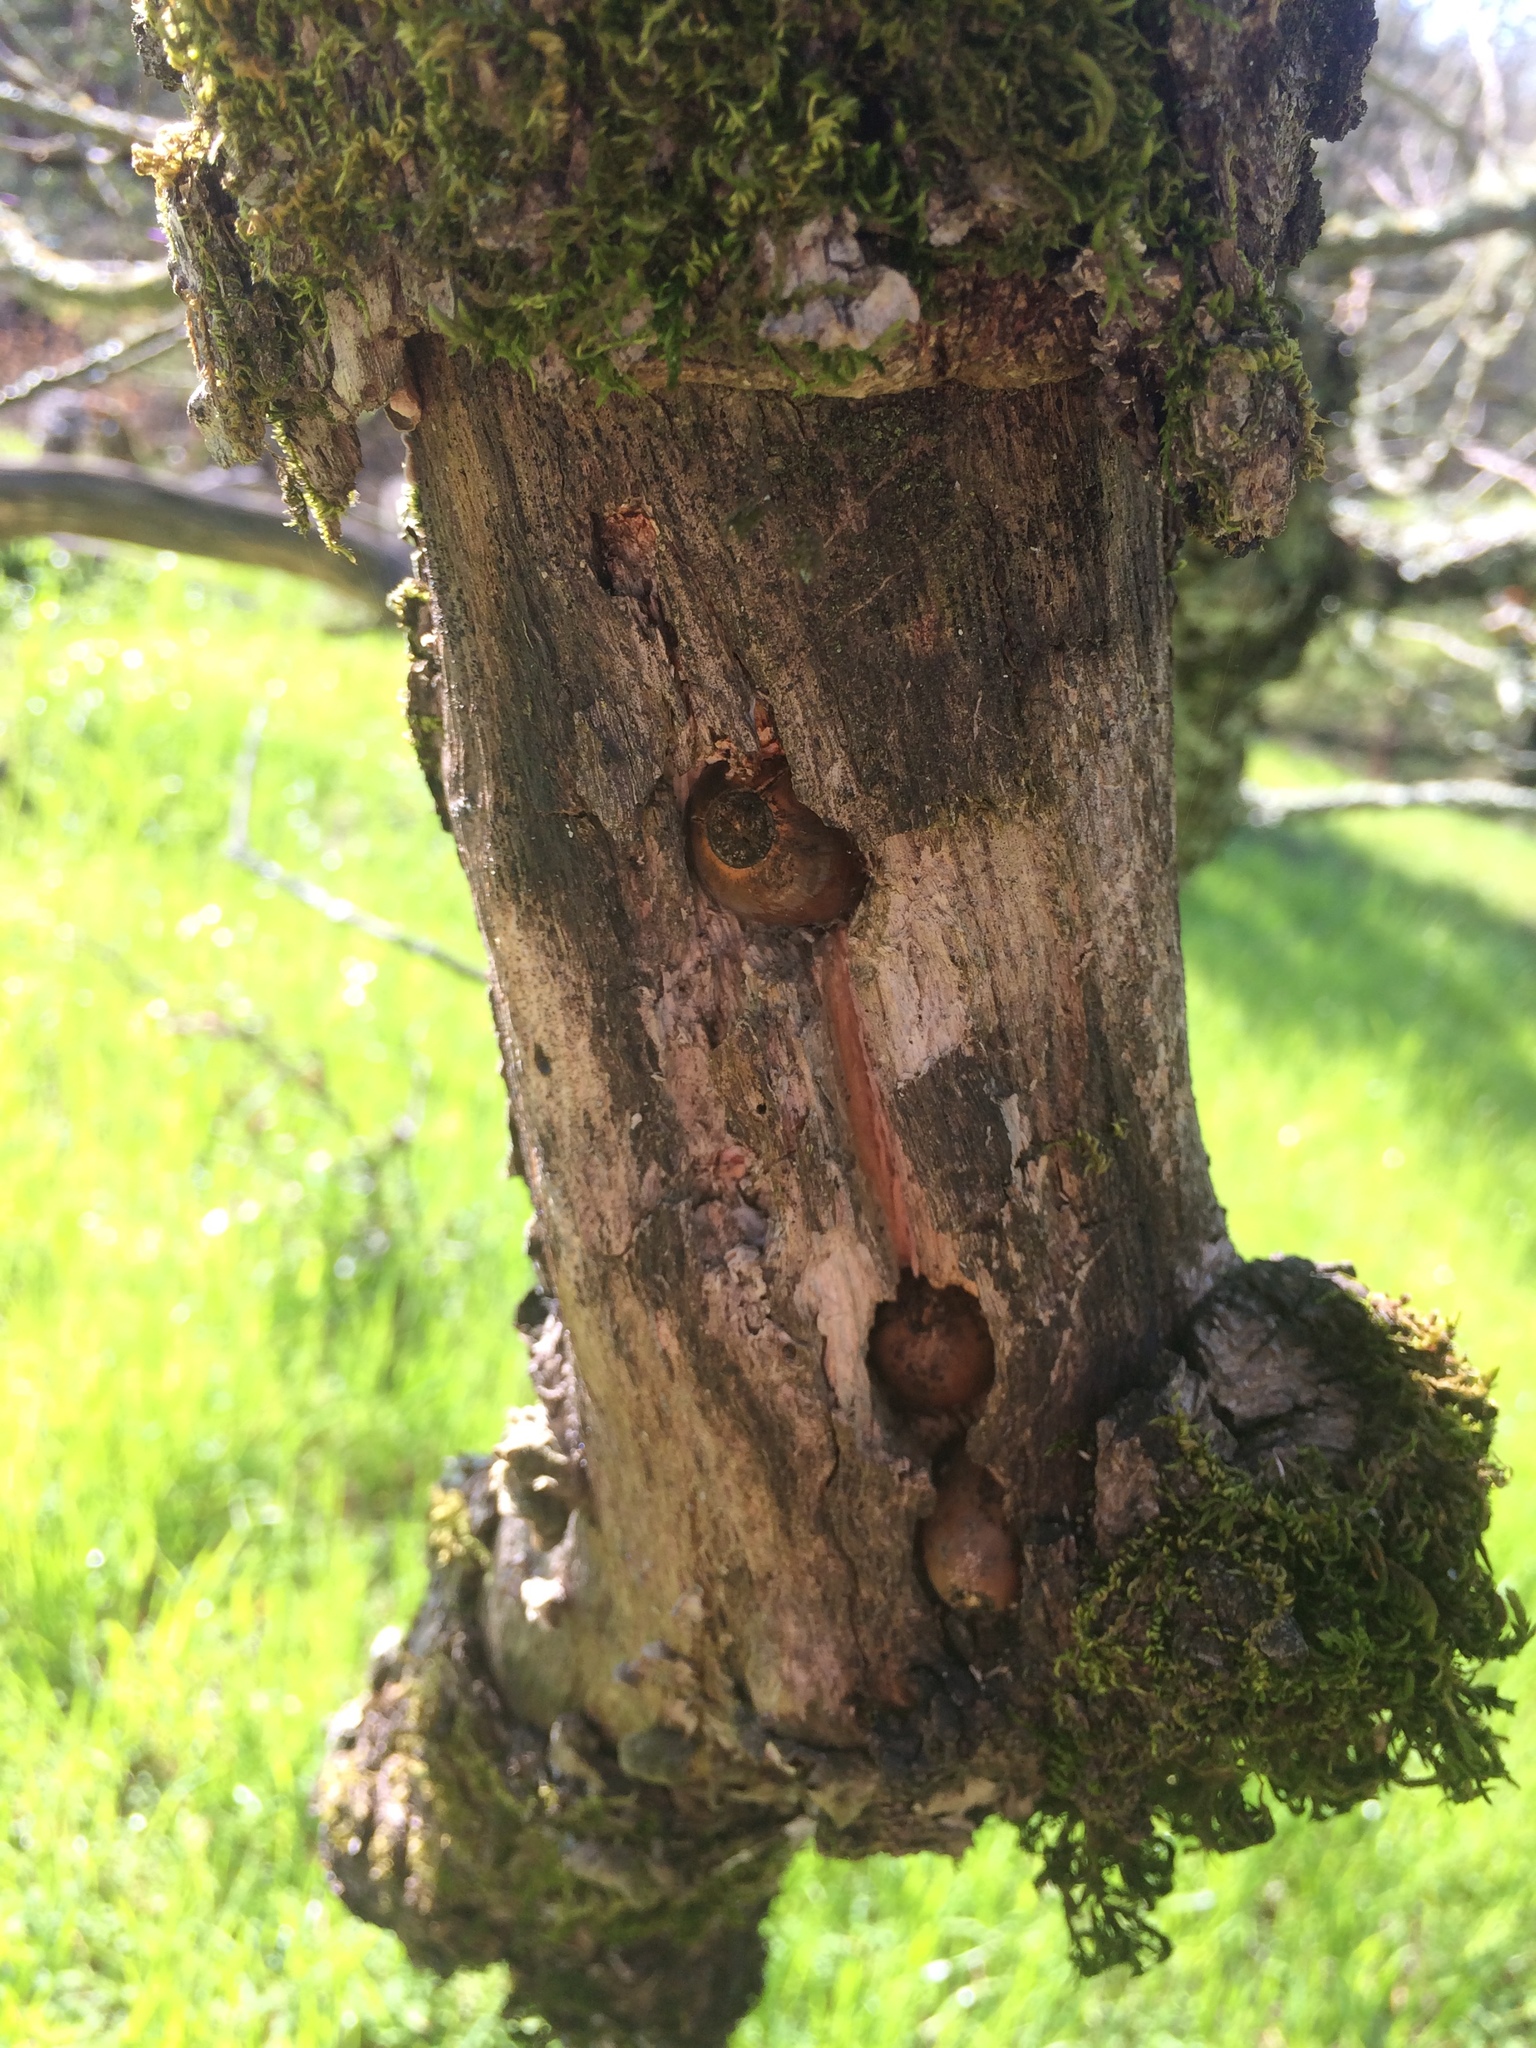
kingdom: Animalia
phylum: Chordata
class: Aves
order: Piciformes
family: Picidae
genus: Melanerpes
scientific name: Melanerpes formicivorus
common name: Acorn woodpecker
